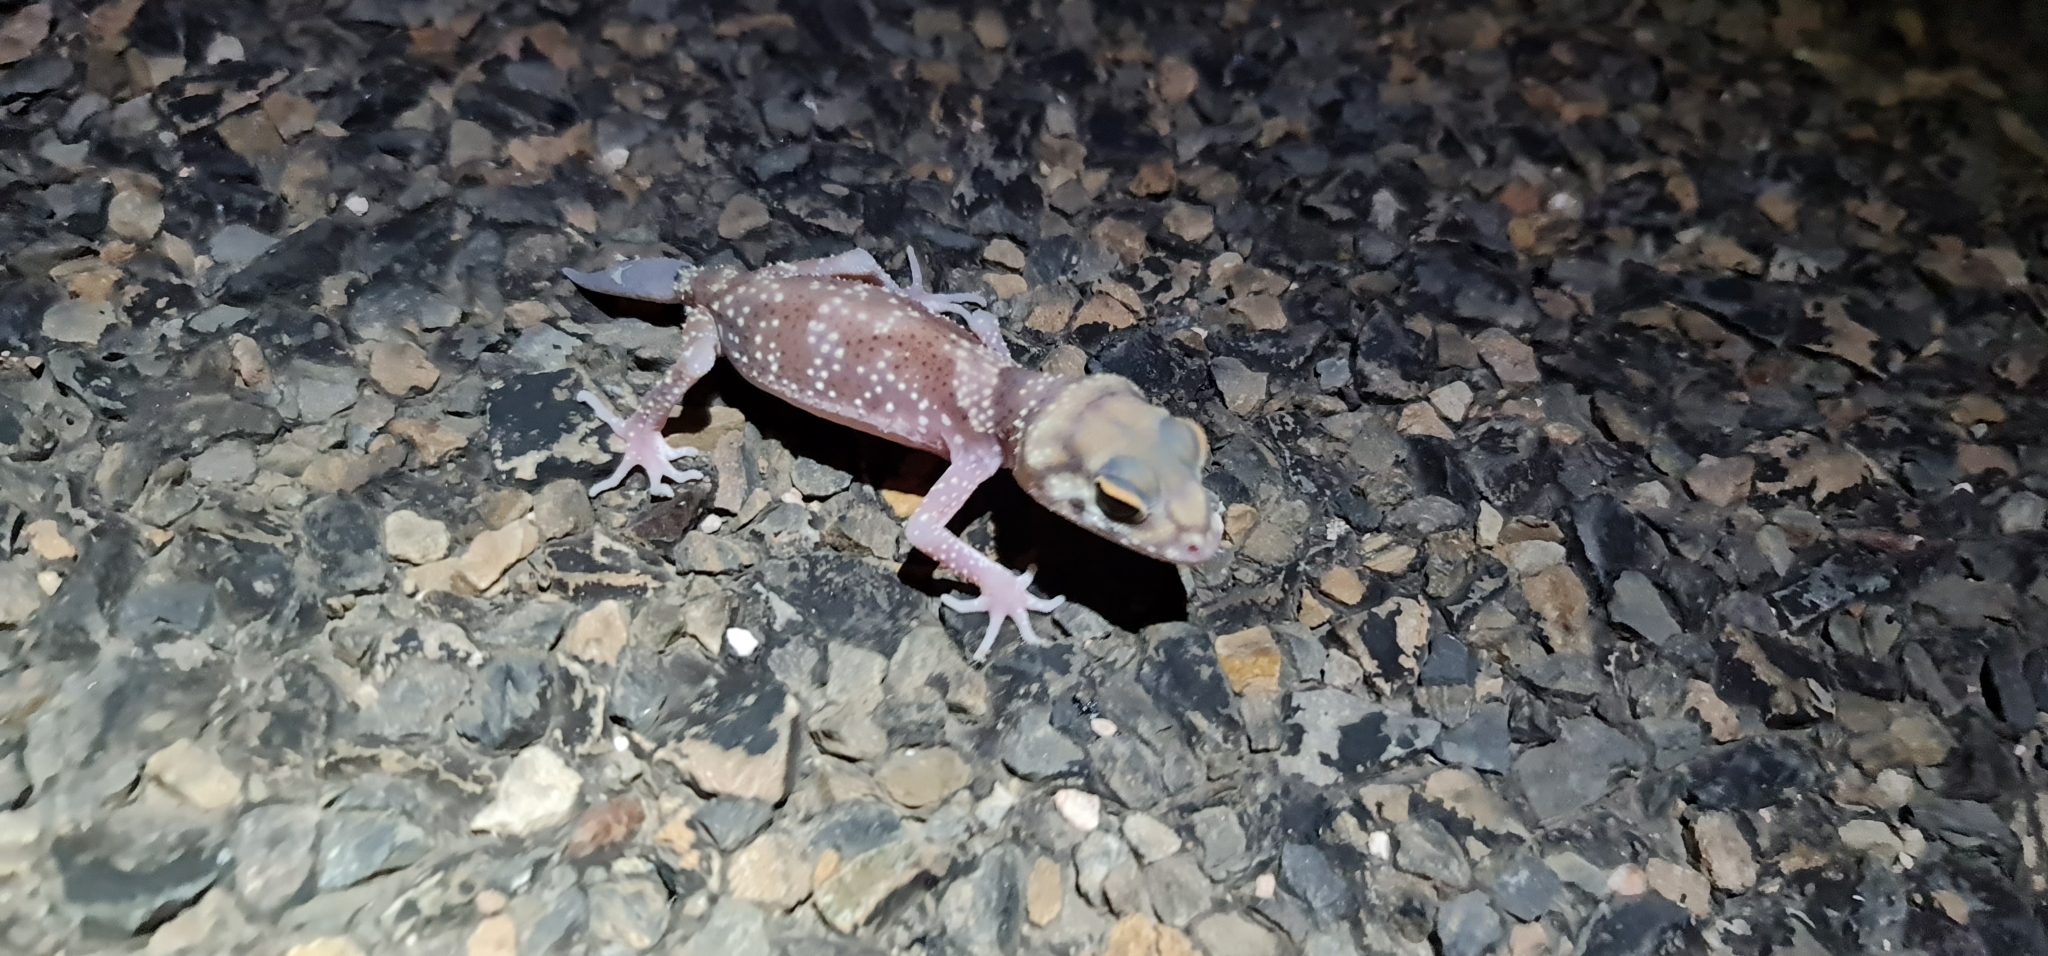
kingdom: Animalia
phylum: Chordata
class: Squamata
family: Carphodactylidae
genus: Underwoodisaurus
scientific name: Underwoodisaurus milii
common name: Barking gecko
